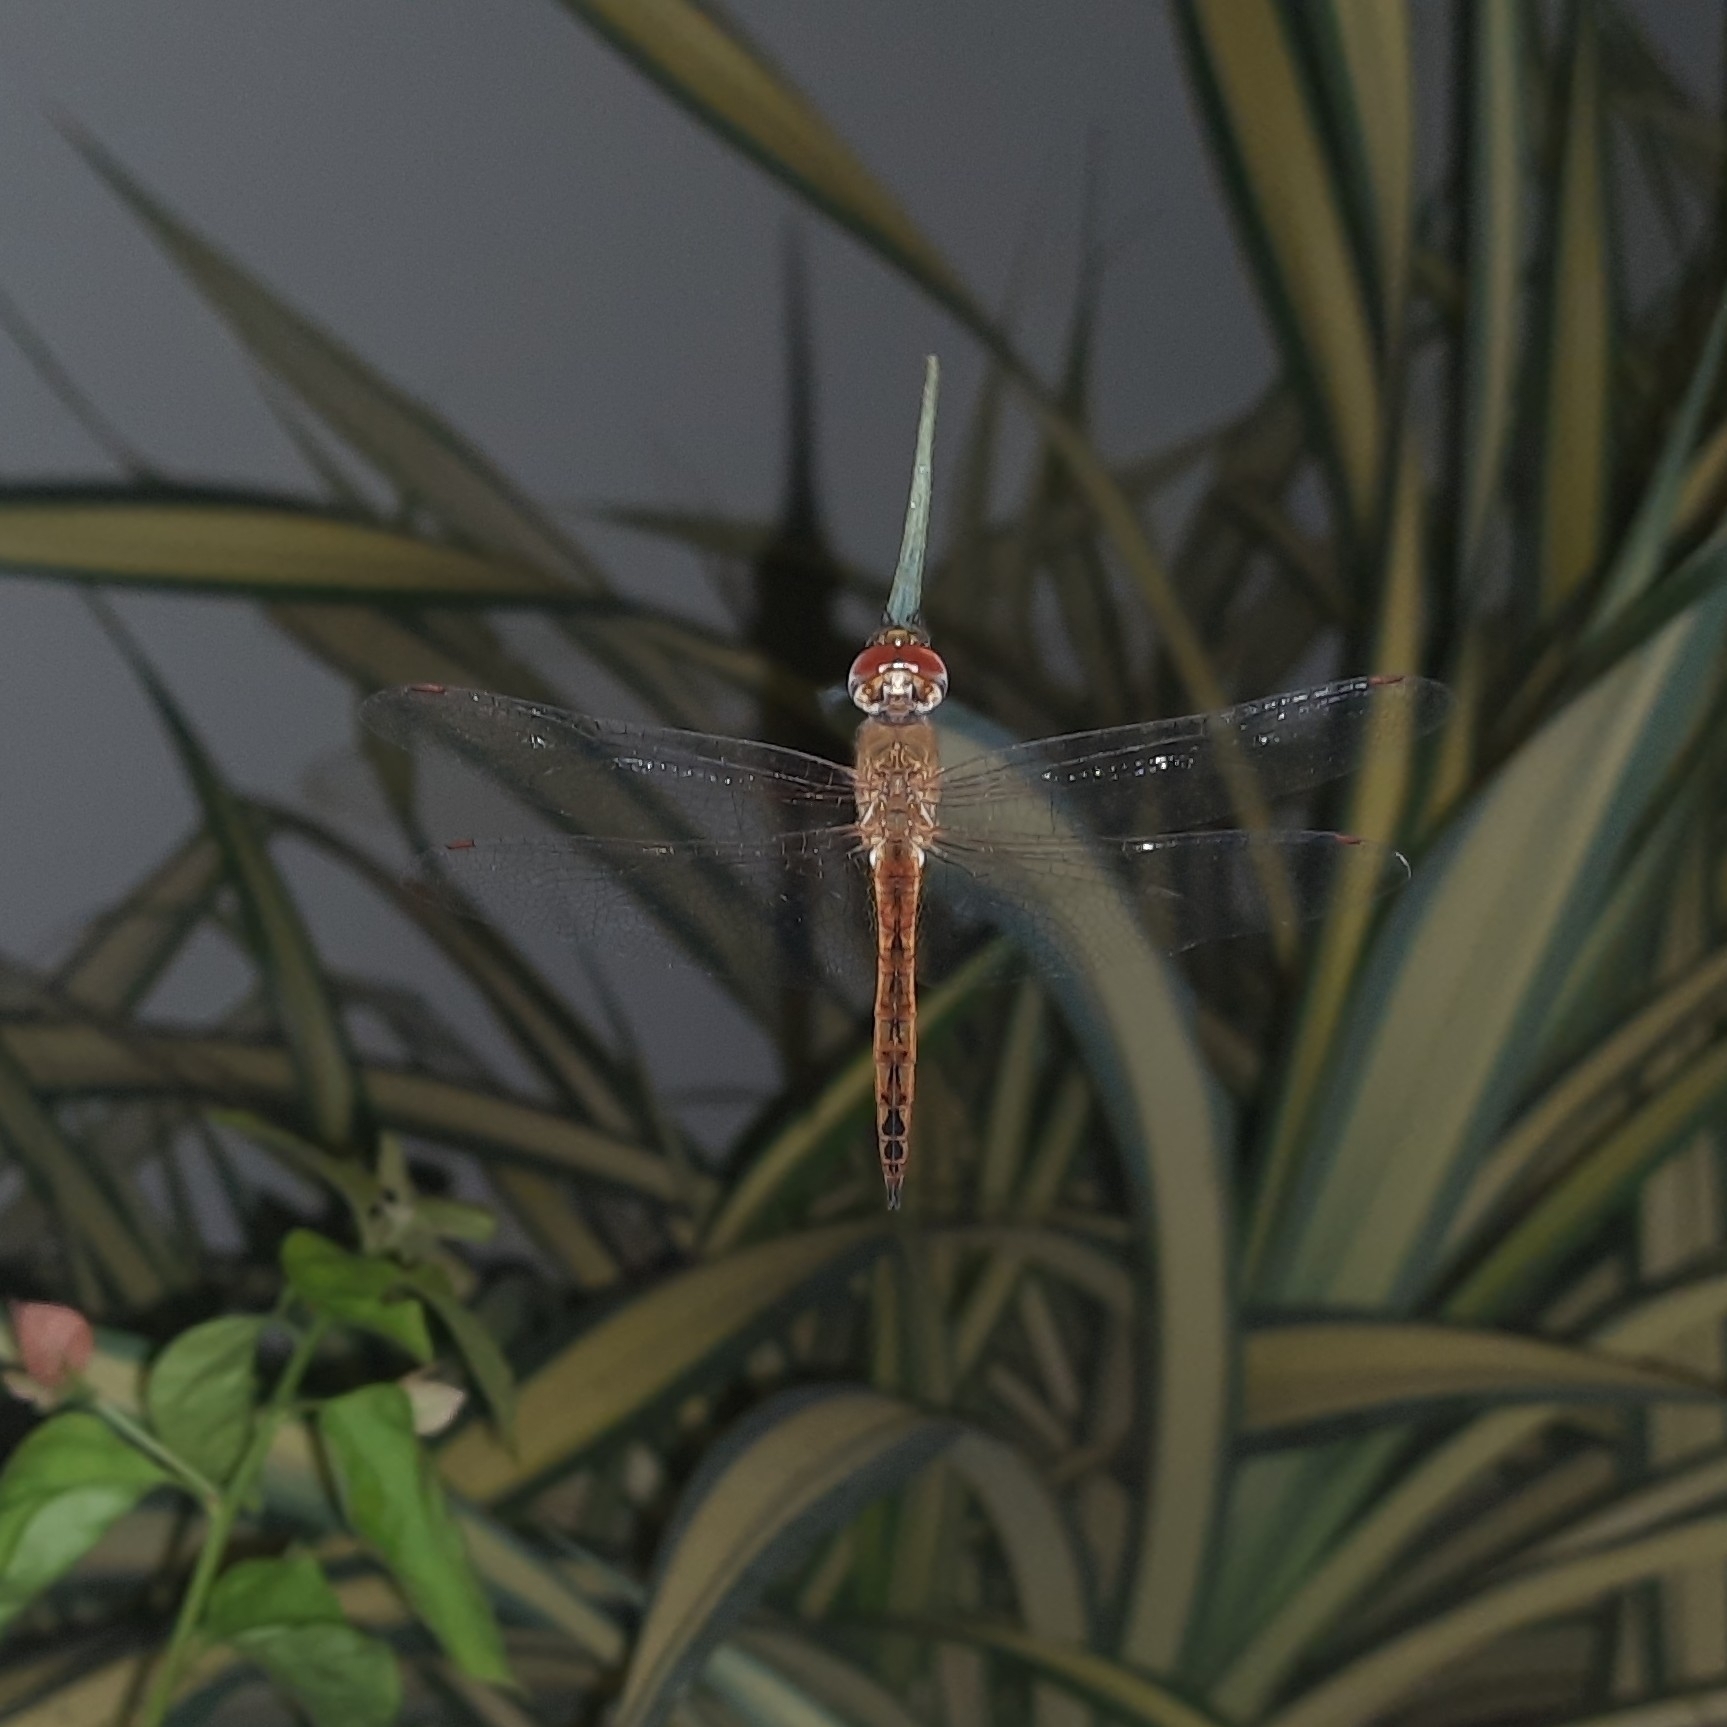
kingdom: Animalia
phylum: Arthropoda
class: Insecta
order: Odonata
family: Libellulidae
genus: Pantala
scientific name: Pantala flavescens
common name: Wandering glider
